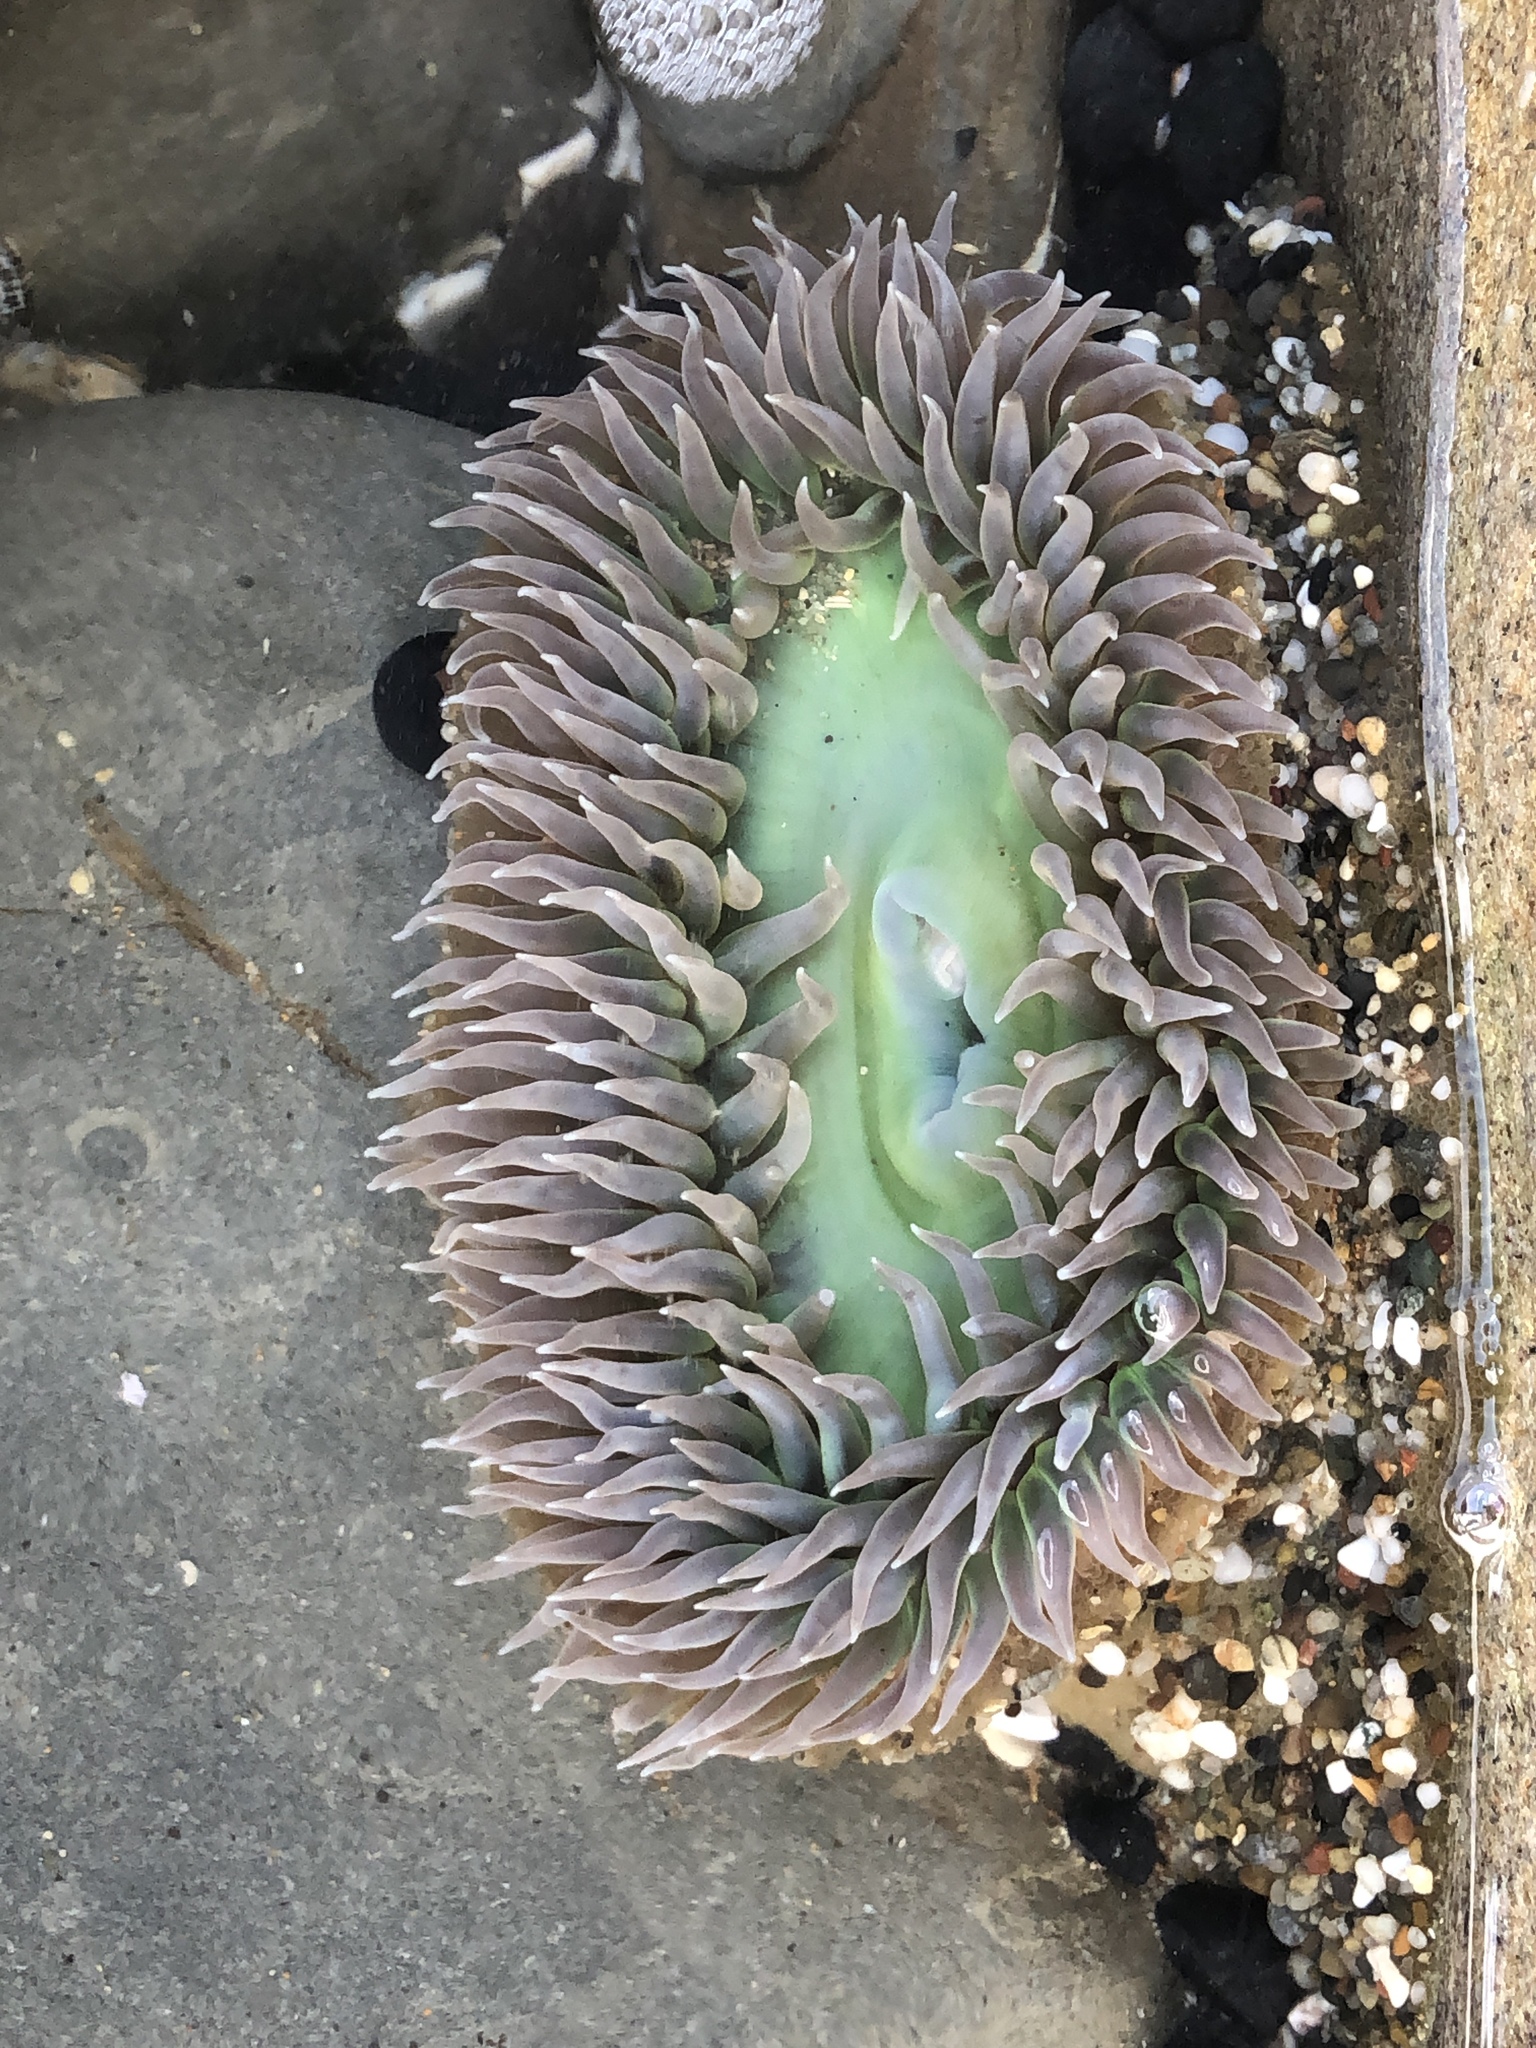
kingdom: Animalia
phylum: Cnidaria
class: Anthozoa
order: Actiniaria
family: Actiniidae
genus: Anthopleura
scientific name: Anthopleura xanthogrammica
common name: Giant green anemone
